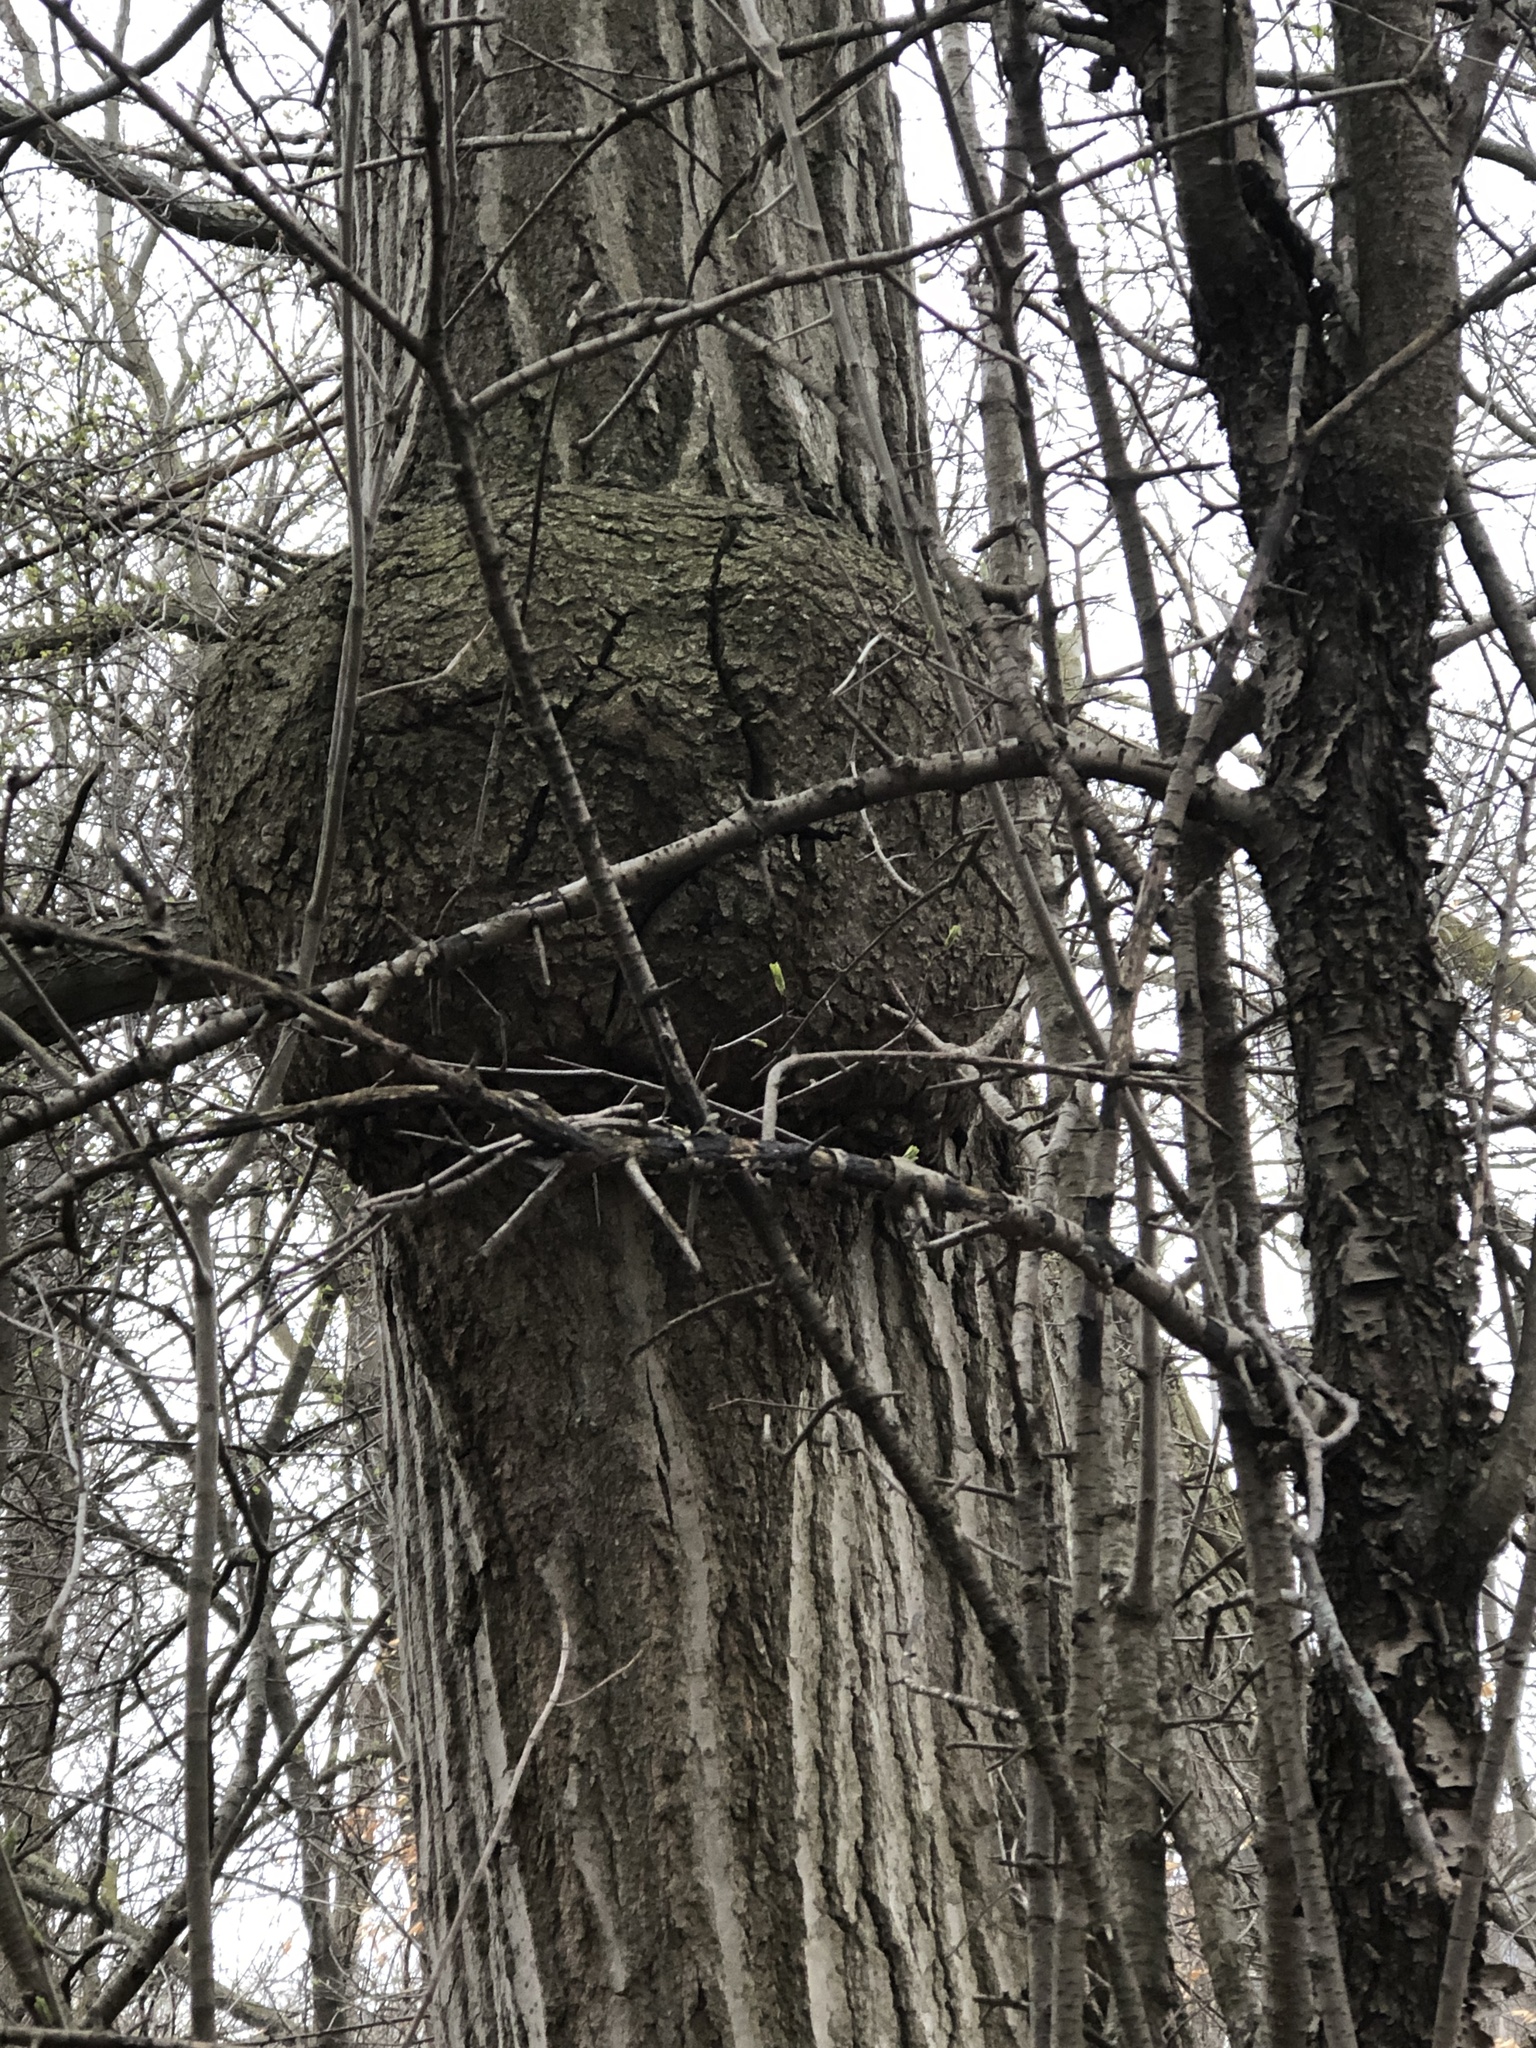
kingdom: Plantae
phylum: Tracheophyta
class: Magnoliopsida
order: Fagales
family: Fagaceae
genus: Quercus
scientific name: Quercus rubra
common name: Red oak
